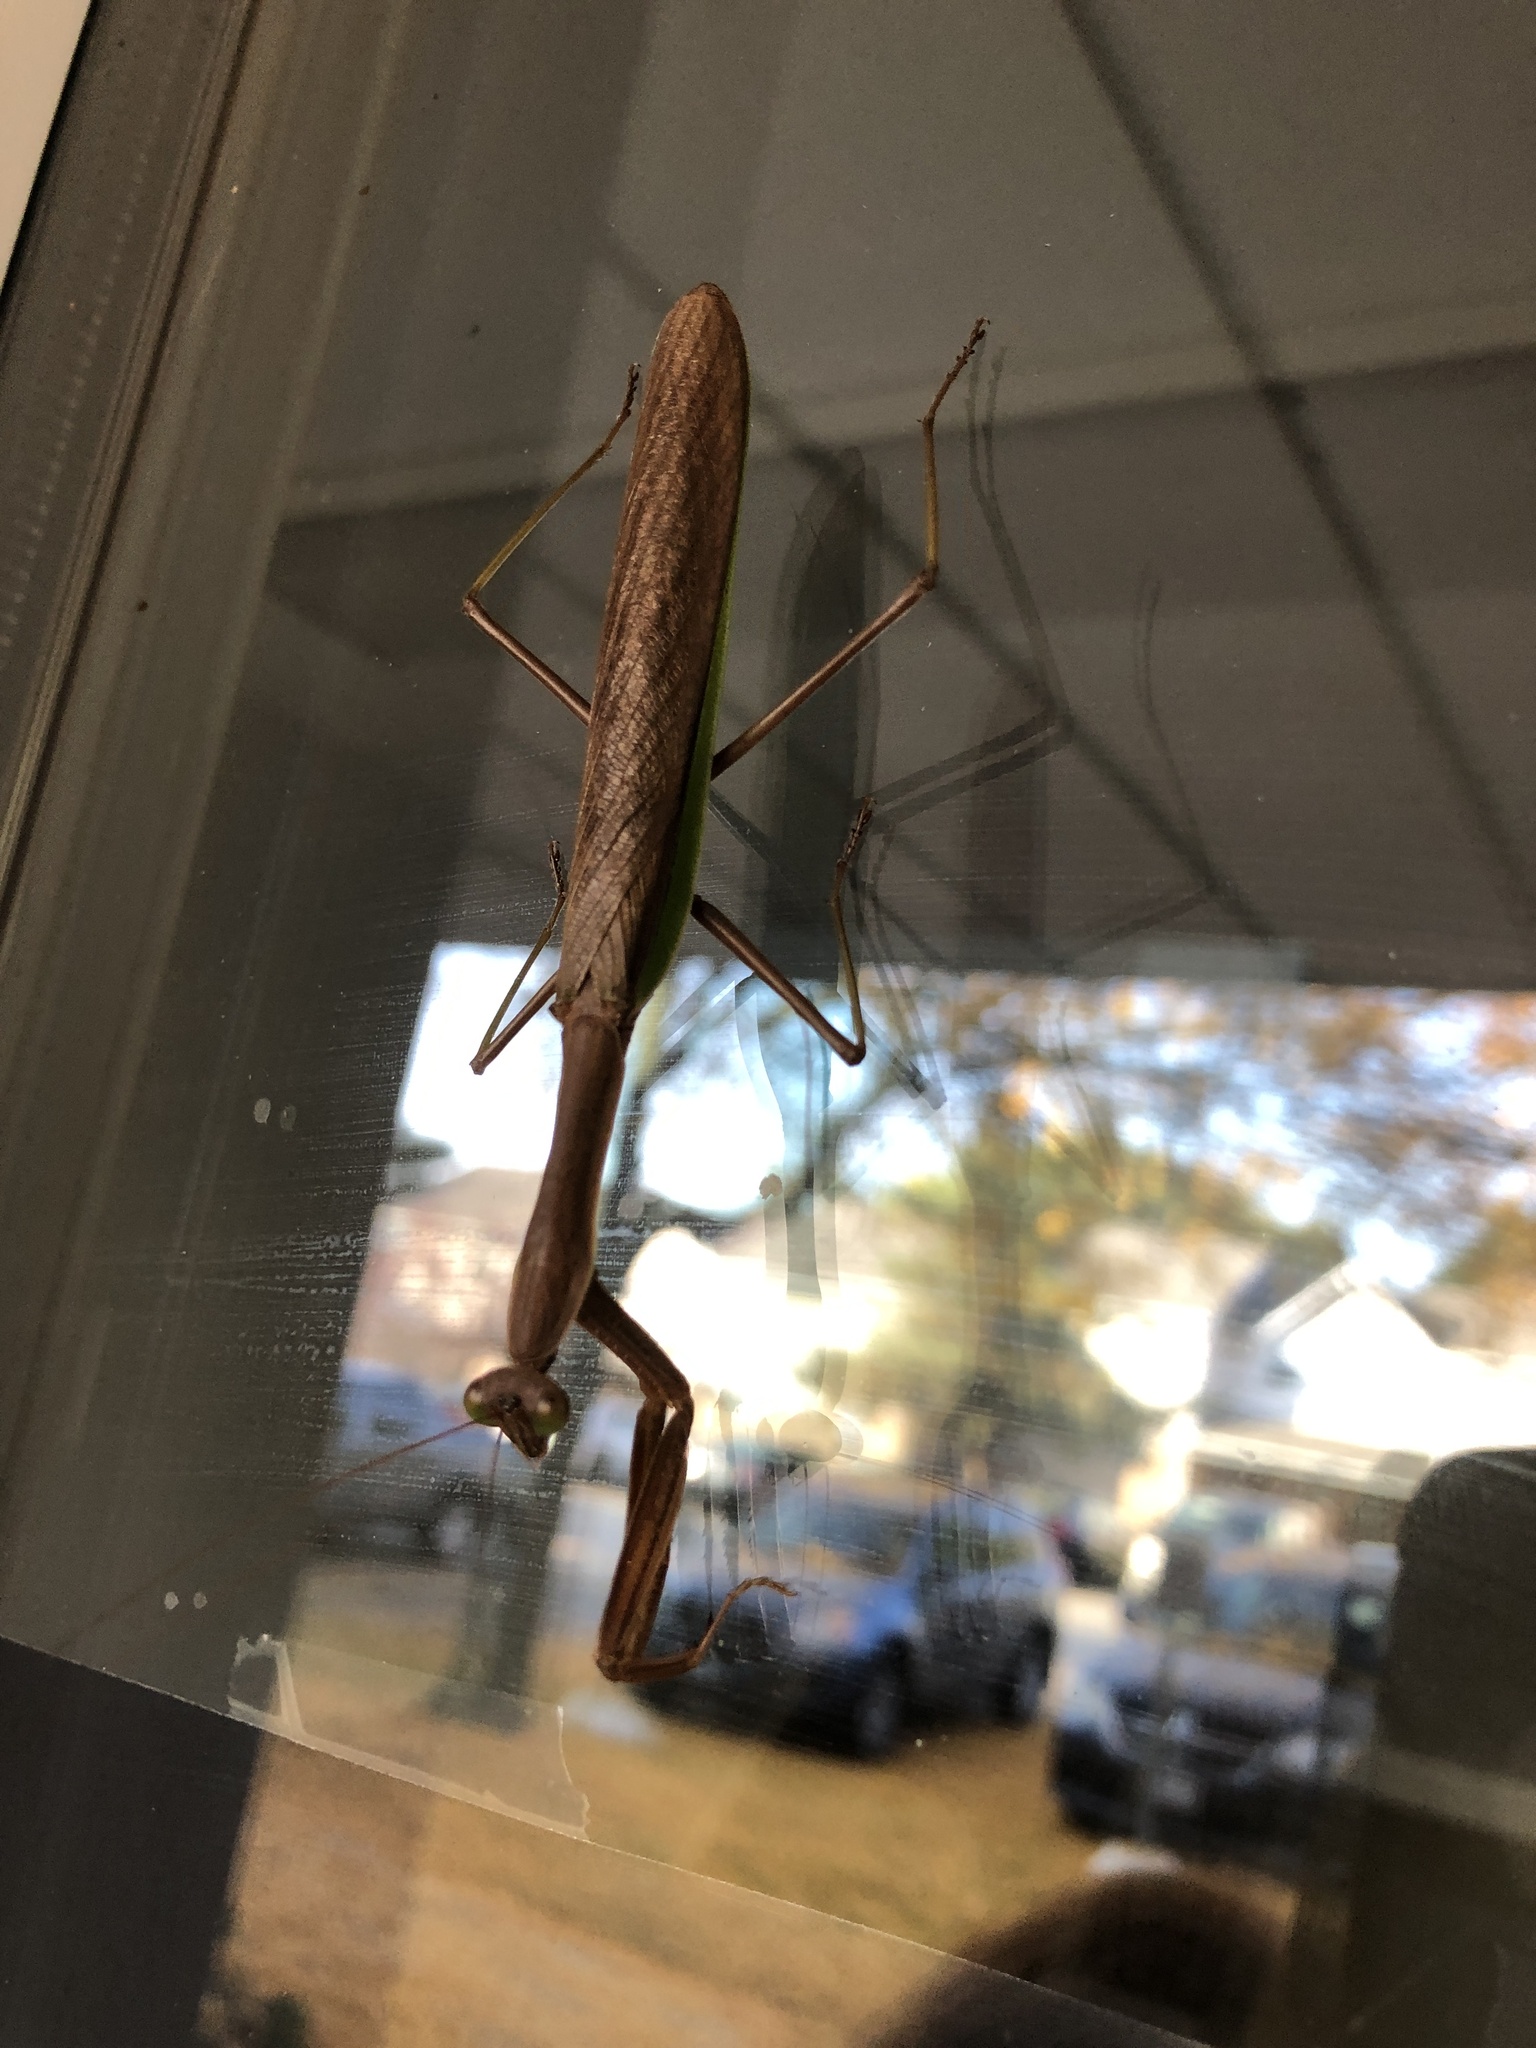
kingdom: Animalia
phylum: Arthropoda
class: Insecta
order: Mantodea
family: Mantidae
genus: Tenodera
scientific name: Tenodera sinensis
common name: Chinese mantis
